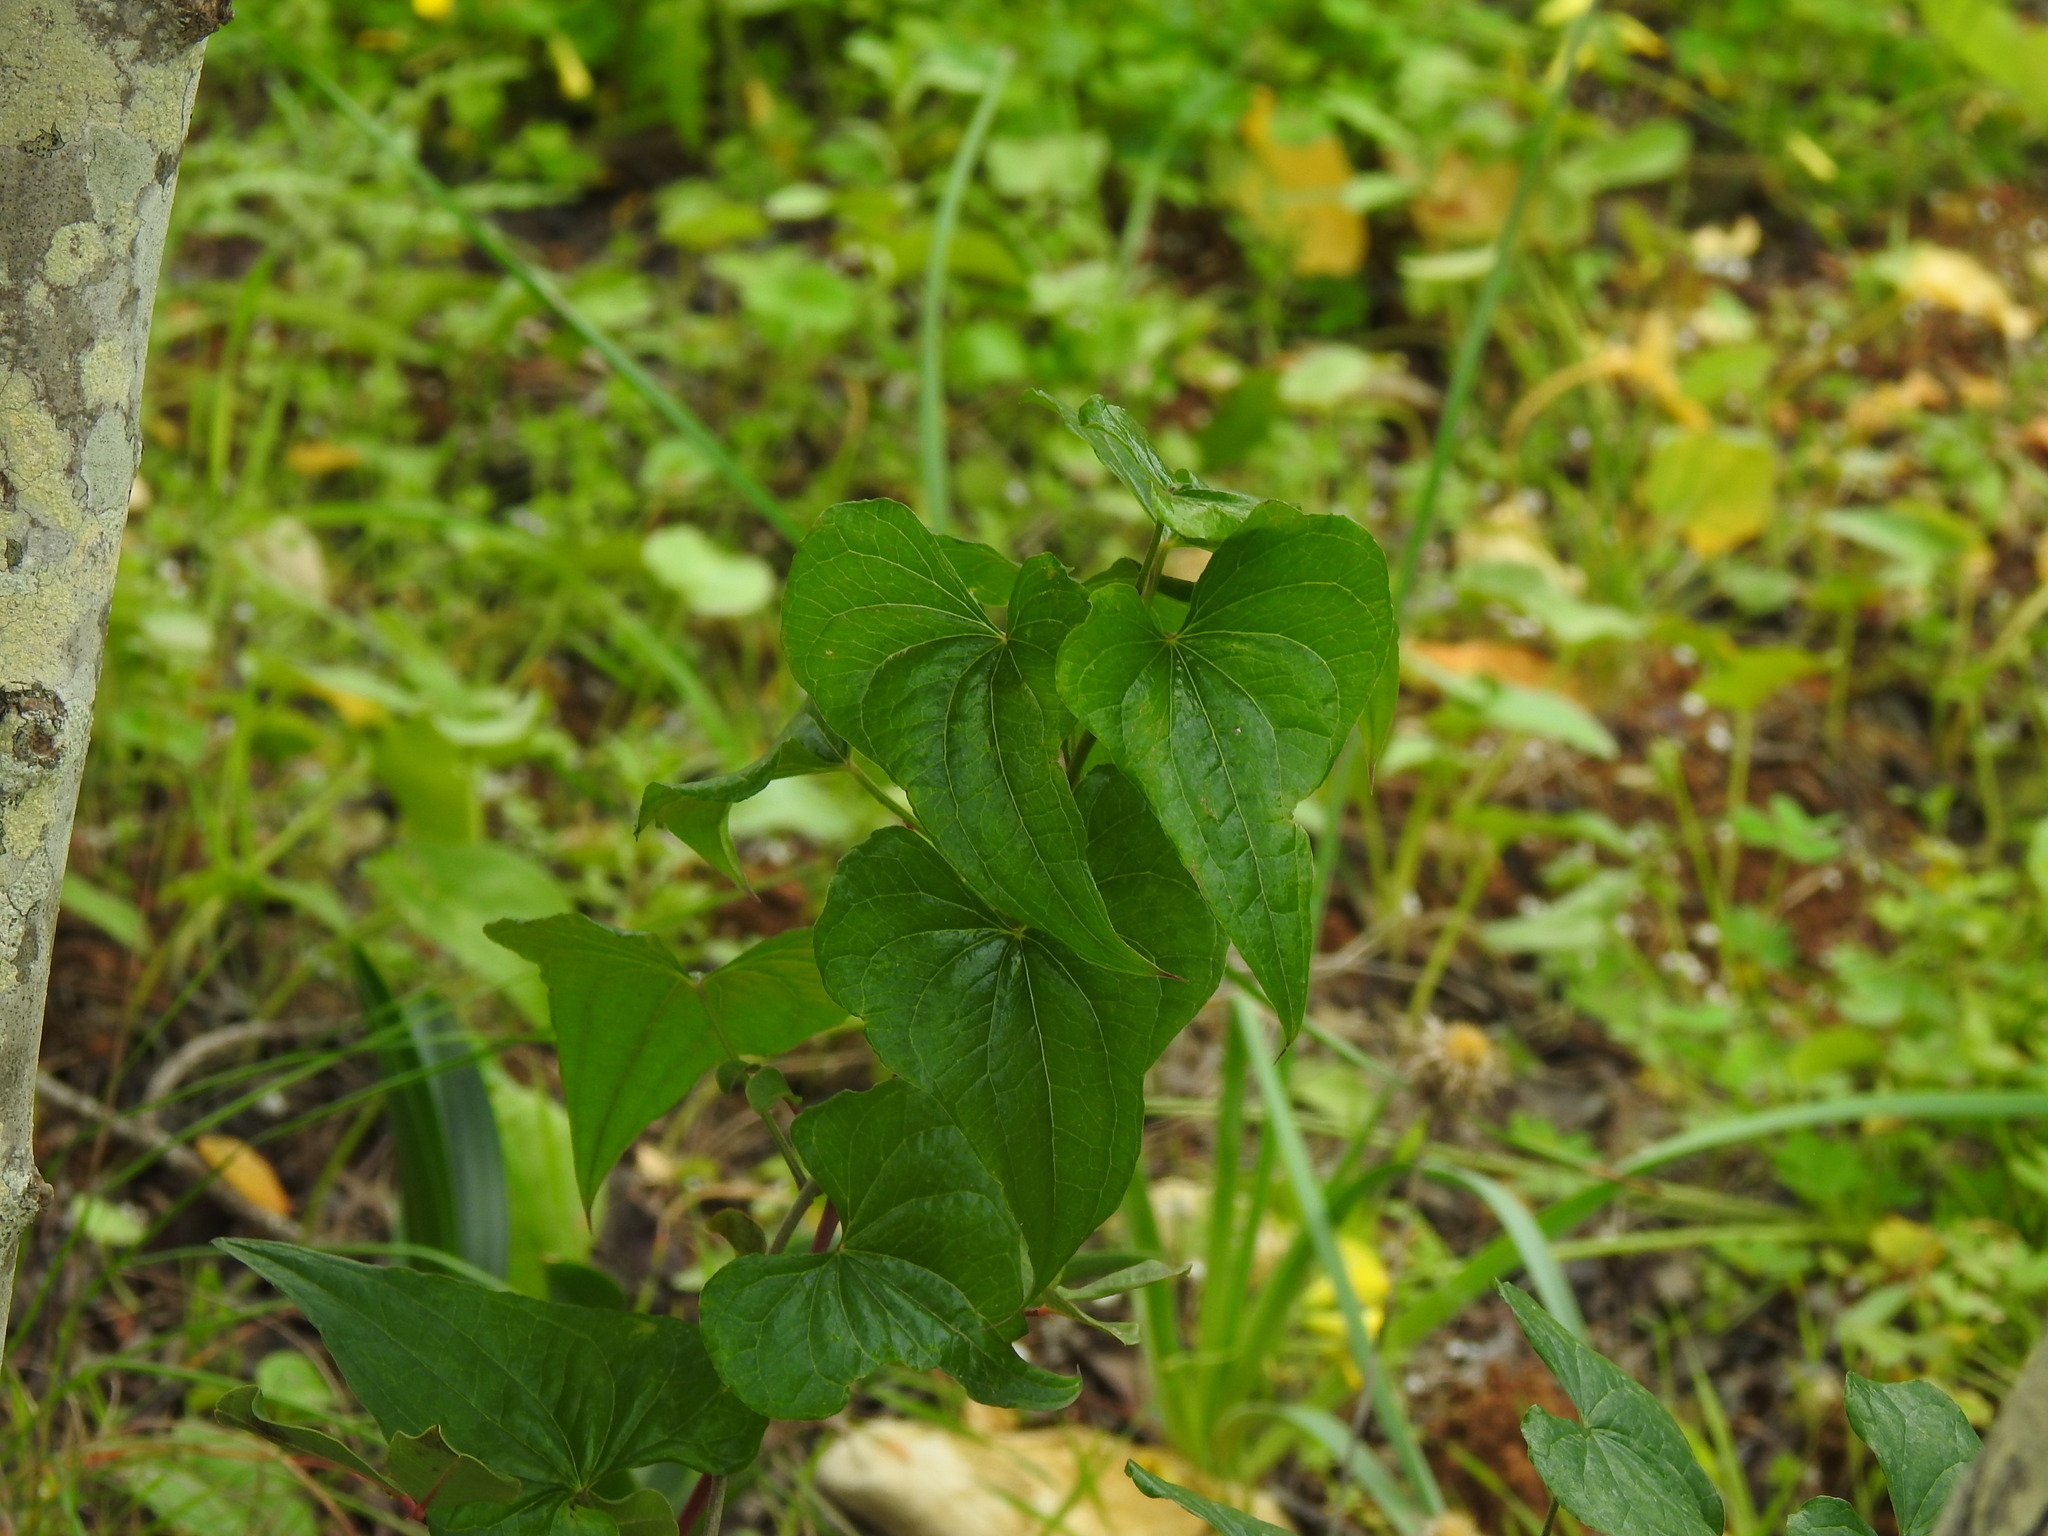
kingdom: Plantae
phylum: Tracheophyta
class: Liliopsida
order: Dioscoreales
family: Dioscoreaceae
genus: Dioscorea
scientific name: Dioscorea communis
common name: Black-bindweed
